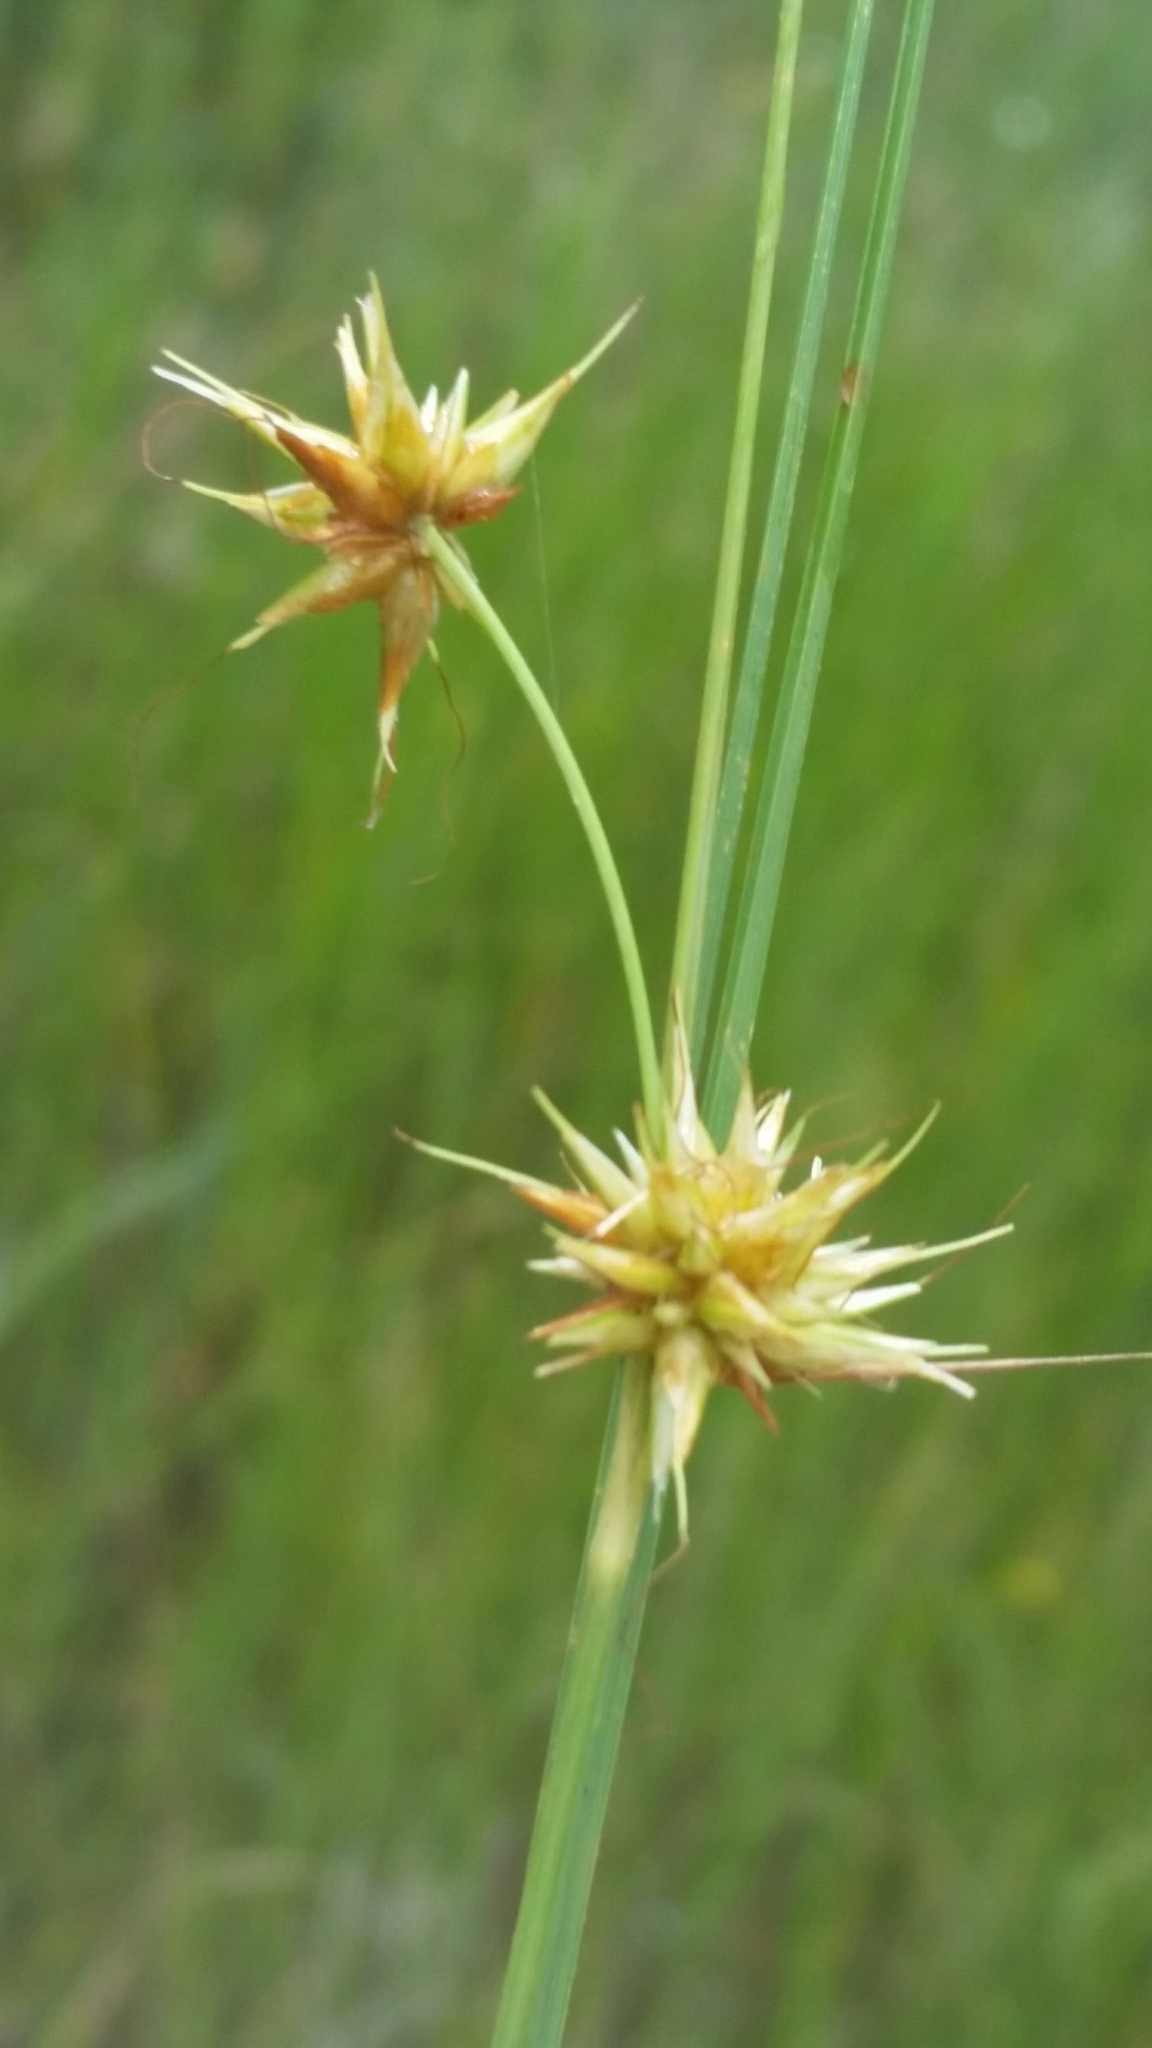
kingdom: Plantae
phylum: Tracheophyta
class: Liliopsida
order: Poales
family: Cyperaceae
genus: Rhynchospora
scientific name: Rhynchospora tracyi
